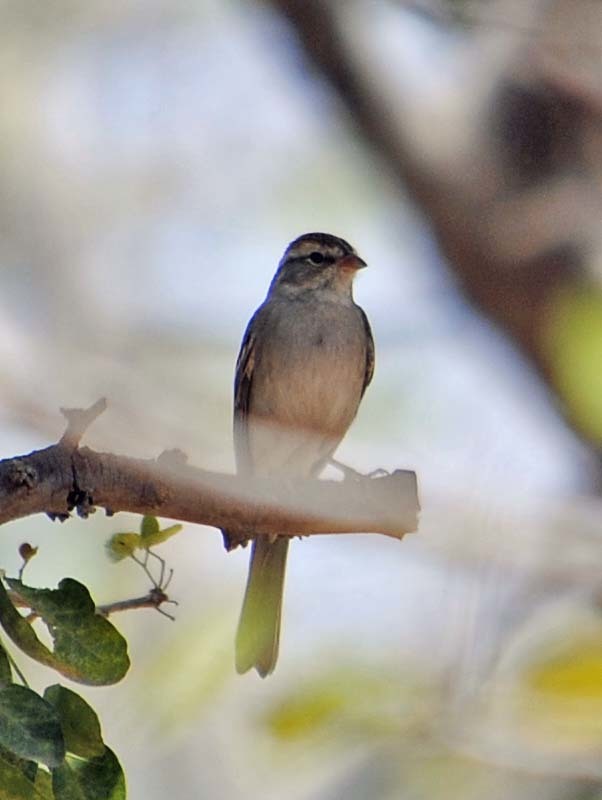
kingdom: Animalia
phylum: Chordata
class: Aves
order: Passeriformes
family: Passerellidae
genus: Spizella
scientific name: Spizella passerina
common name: Chipping sparrow
